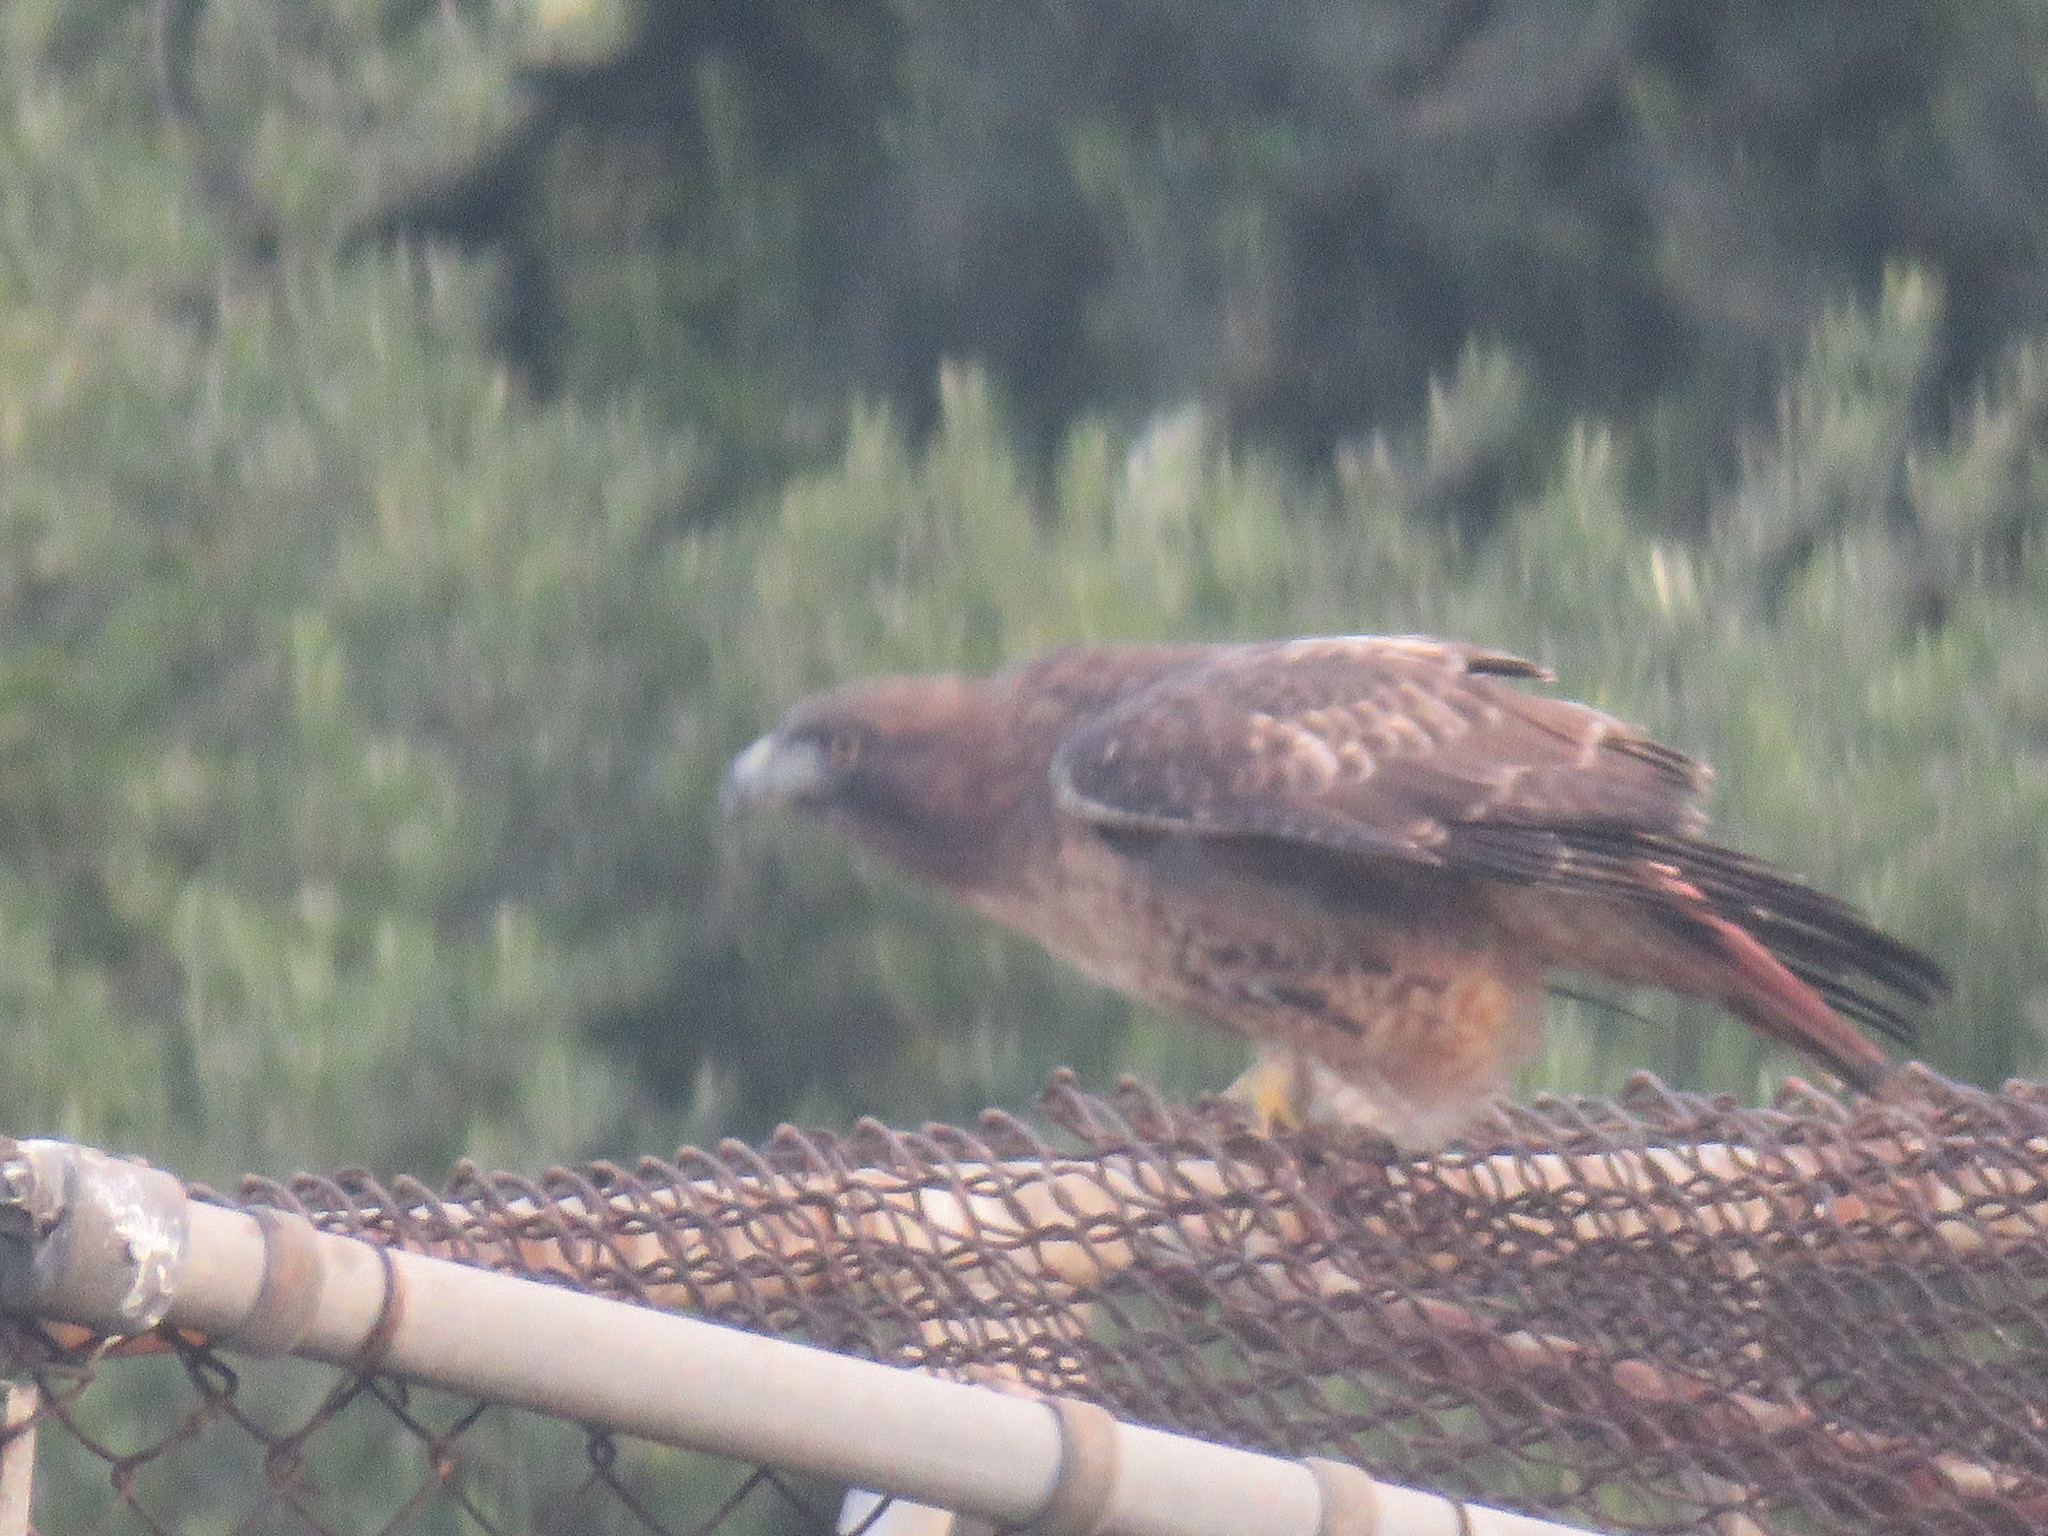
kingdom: Animalia
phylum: Chordata
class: Aves
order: Accipitriformes
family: Accipitridae
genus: Buteo
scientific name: Buteo jamaicensis
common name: Red-tailed hawk
